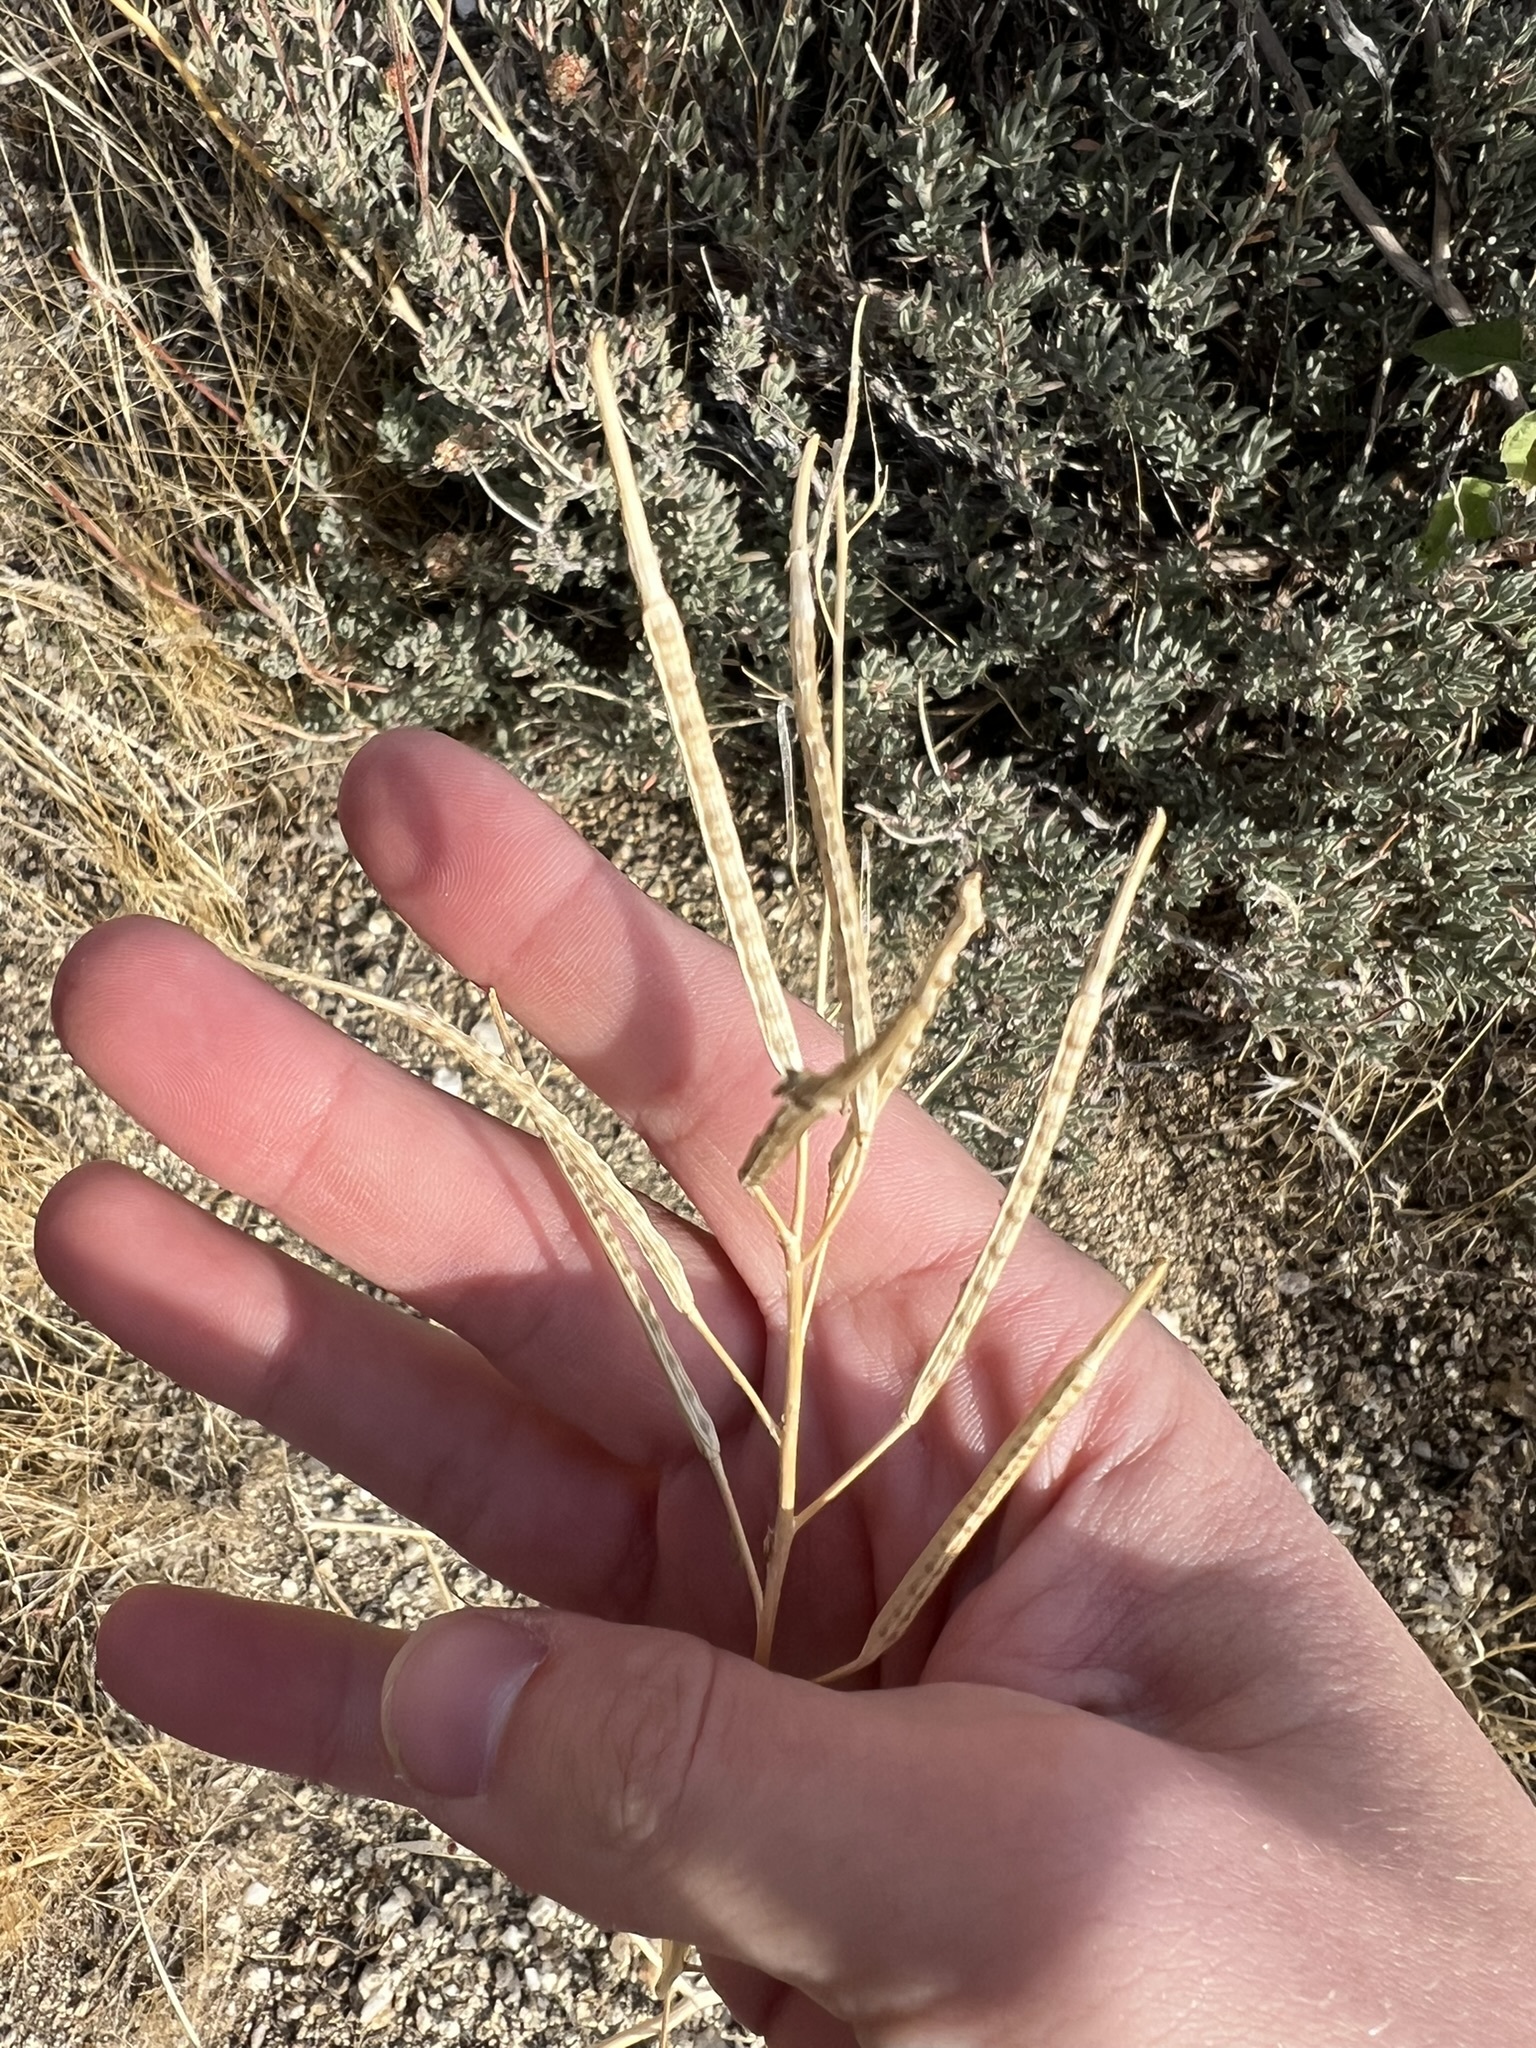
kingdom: Plantae
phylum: Tracheophyta
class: Magnoliopsida
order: Brassicales
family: Brassicaceae
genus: Brassica
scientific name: Brassica tournefortii
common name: Pale cabbage
